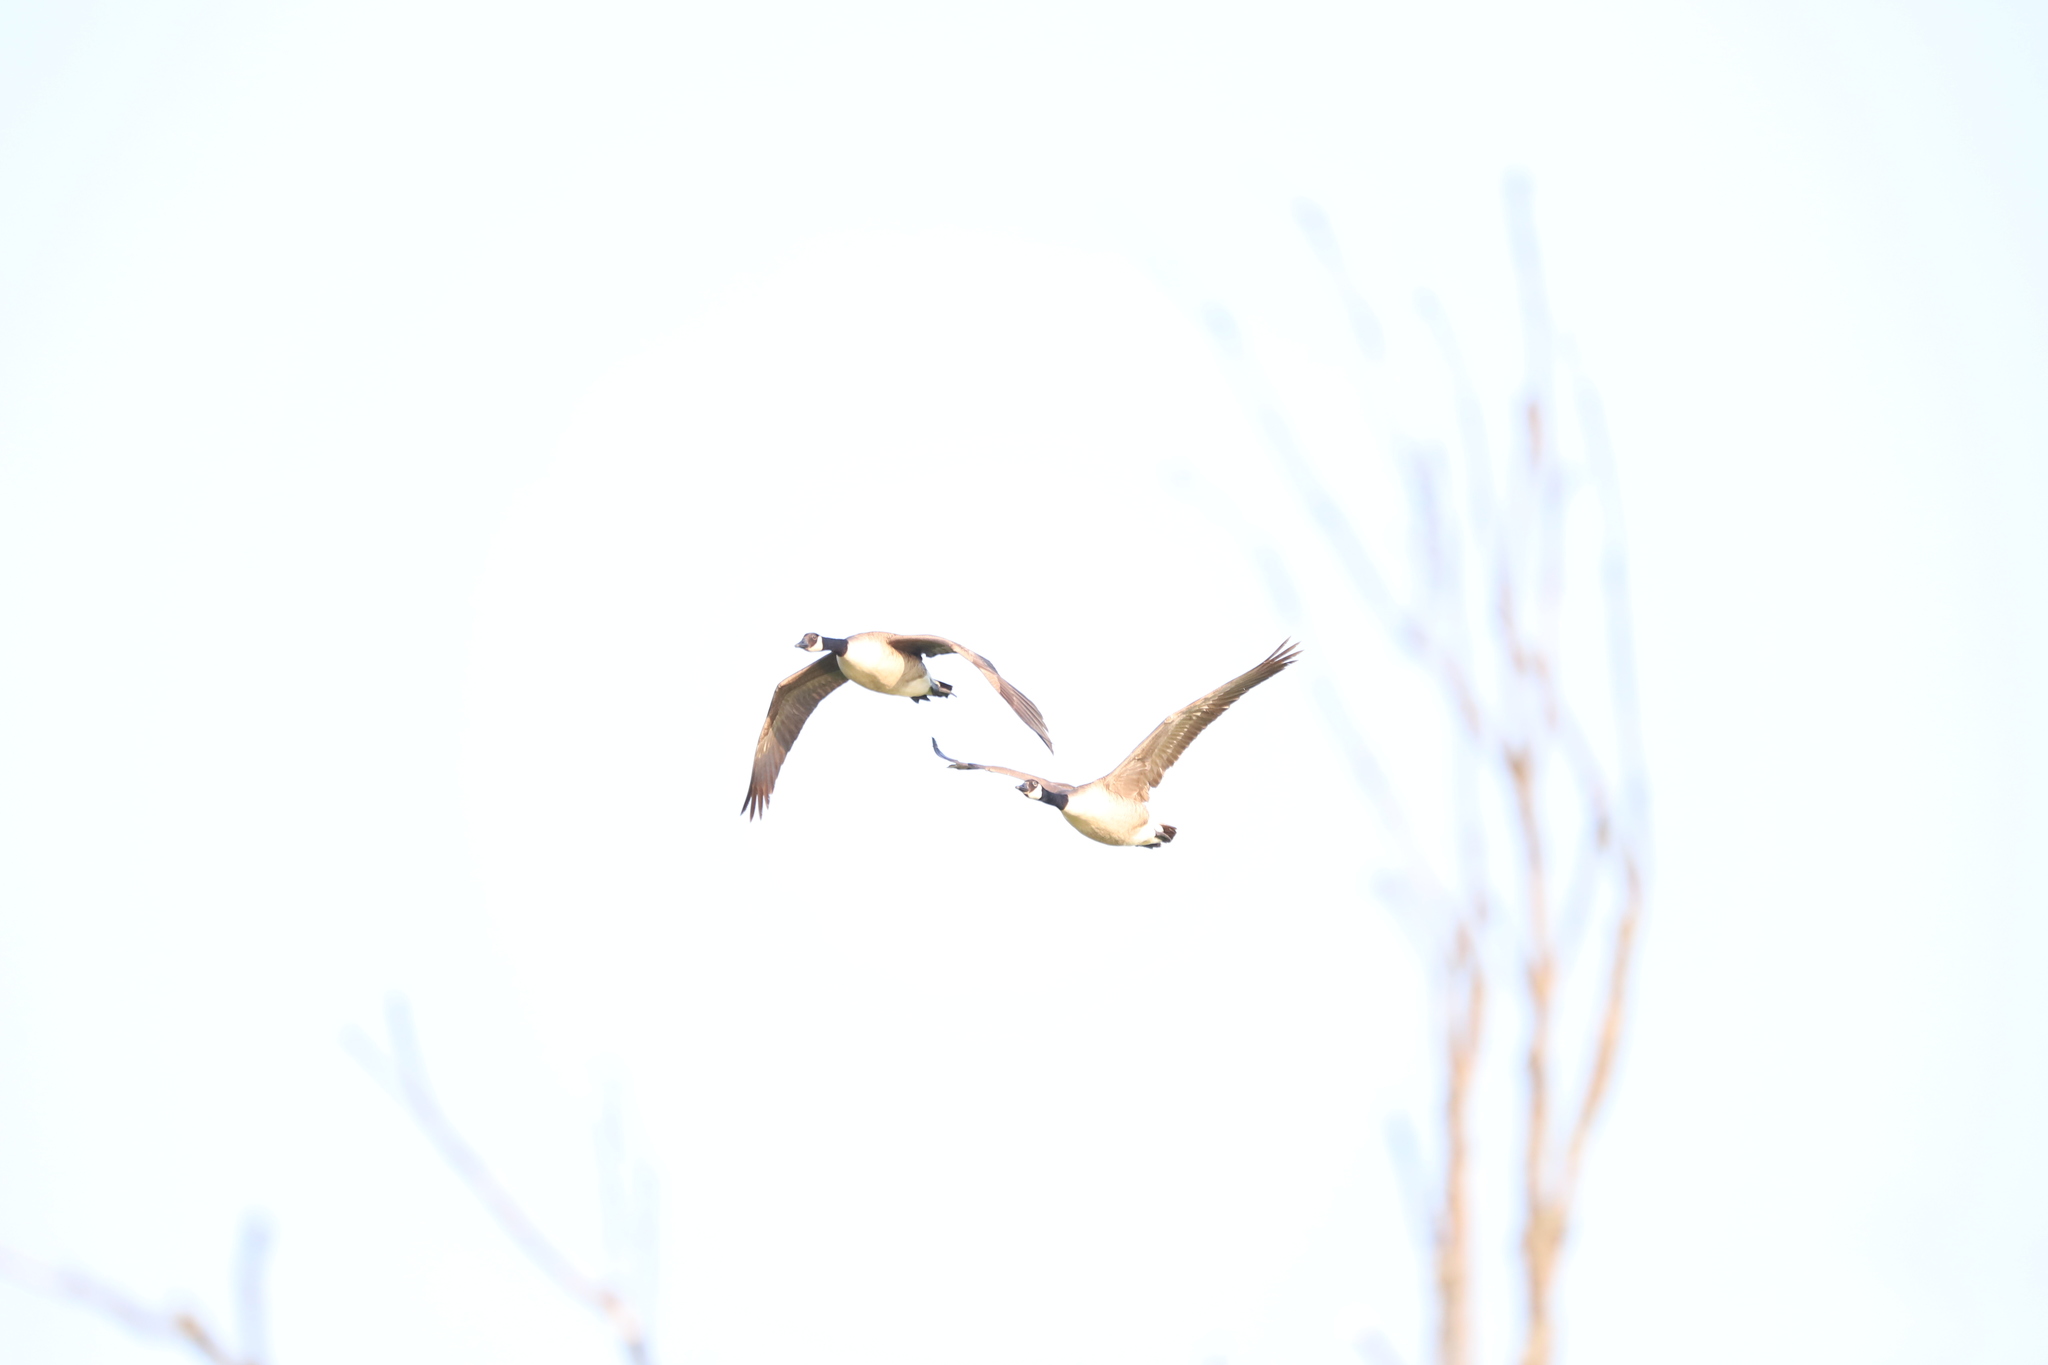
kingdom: Animalia
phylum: Chordata
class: Aves
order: Anseriformes
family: Anatidae
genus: Branta
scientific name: Branta canadensis
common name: Canada goose
